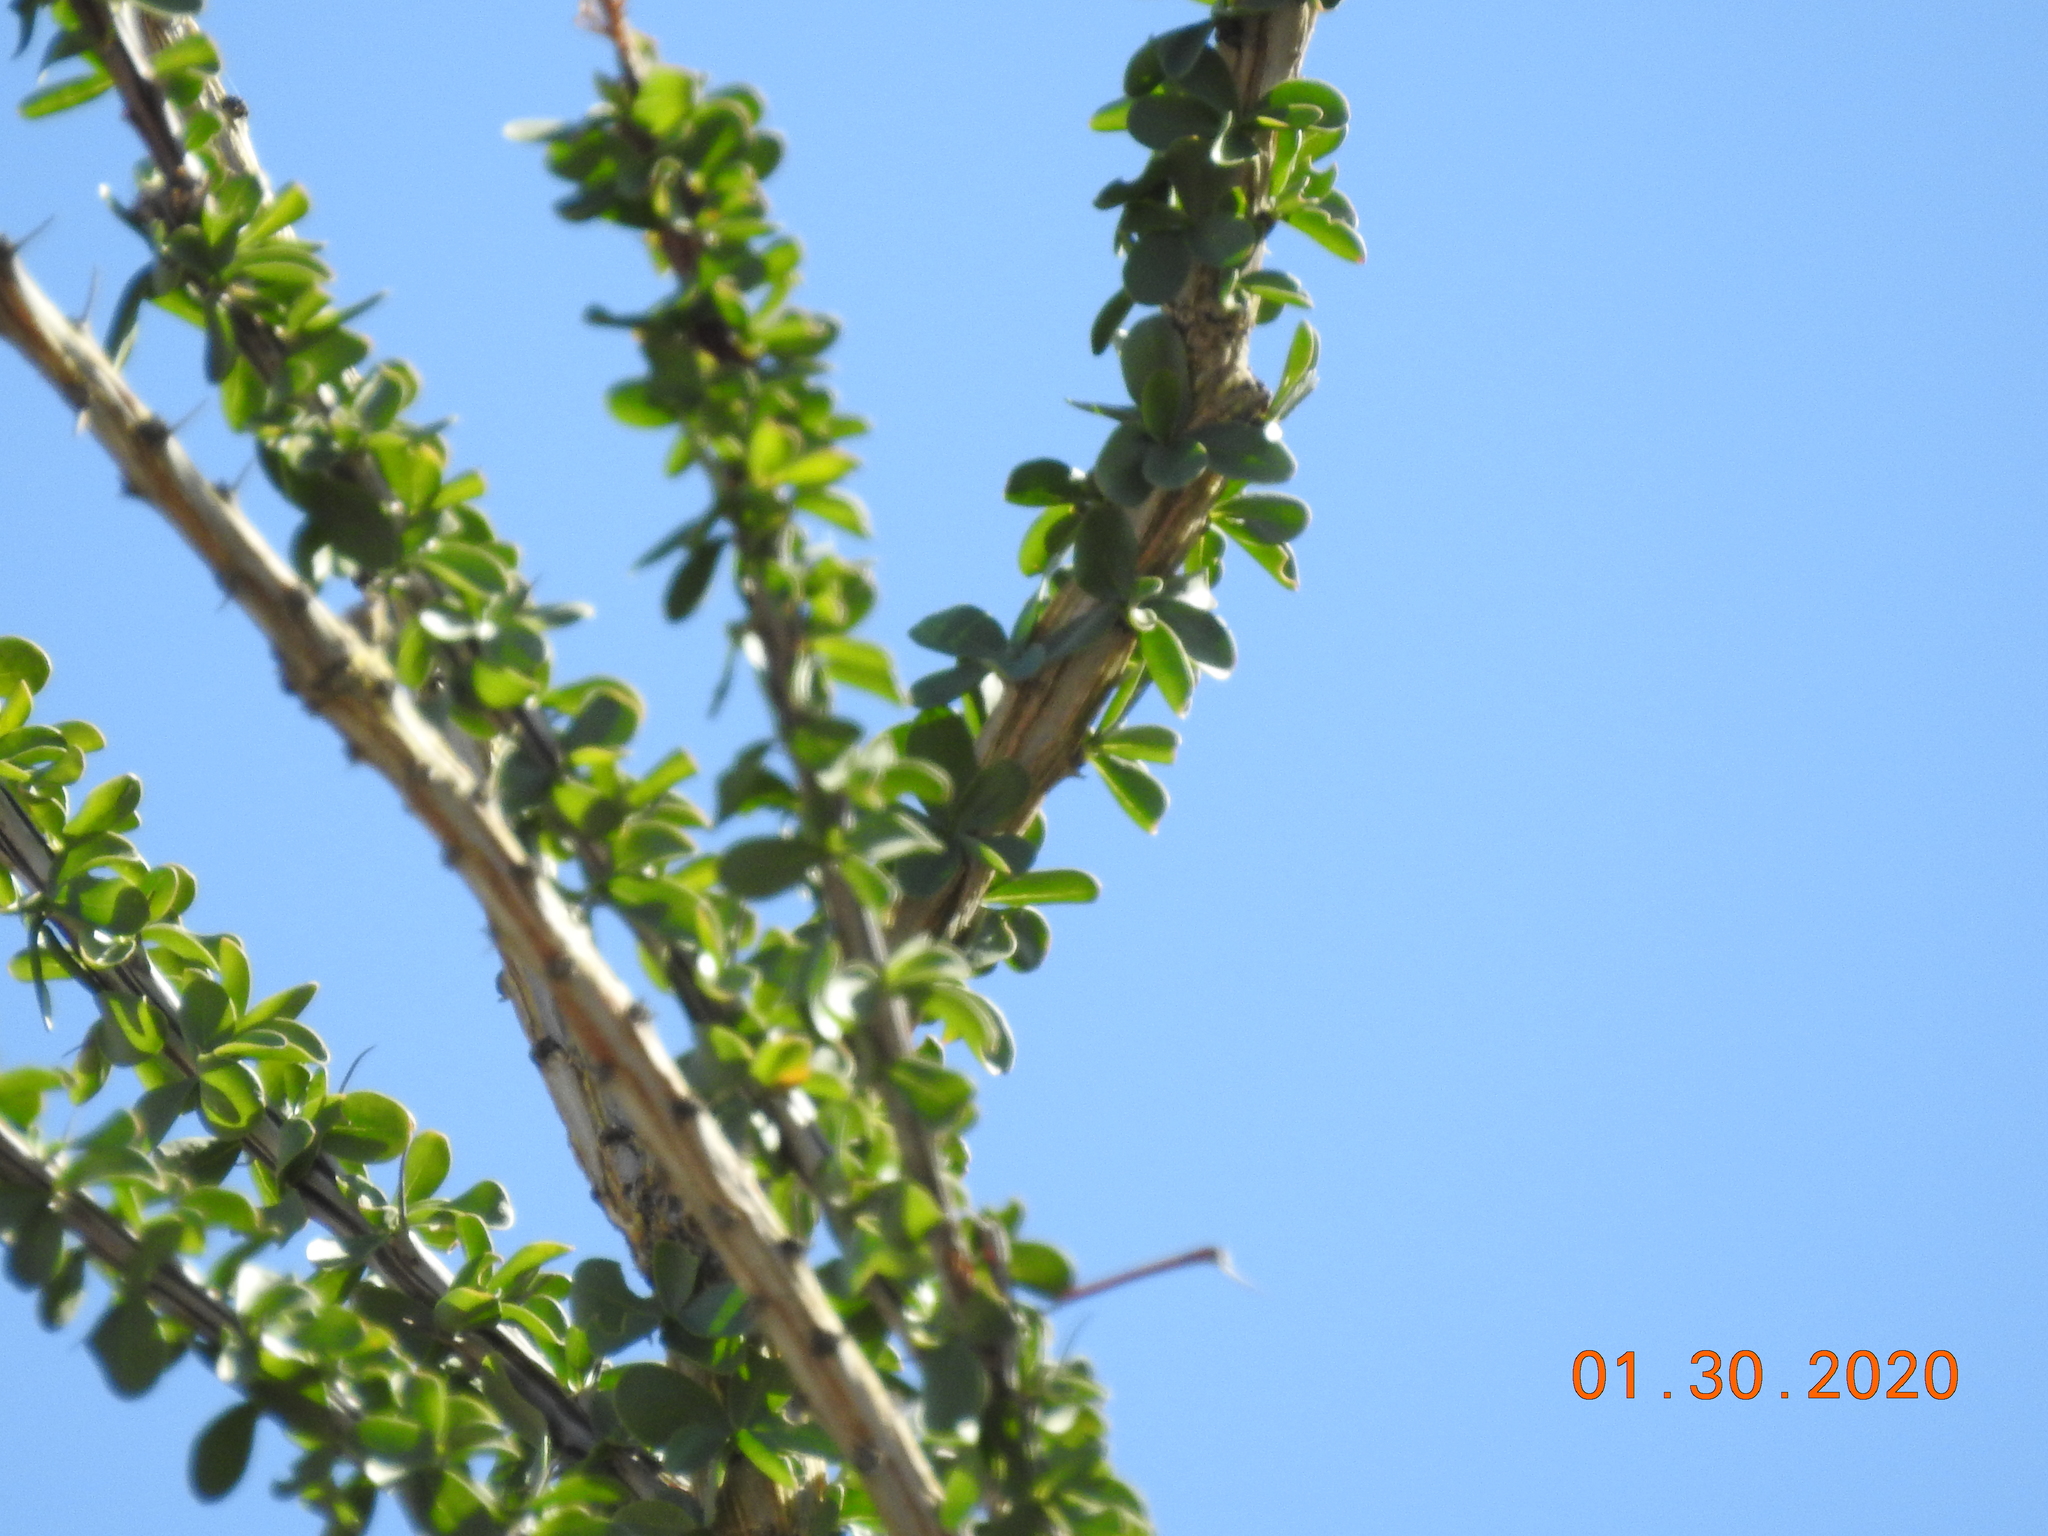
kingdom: Plantae
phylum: Tracheophyta
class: Magnoliopsida
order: Ericales
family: Fouquieriaceae
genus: Fouquieria
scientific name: Fouquieria splendens
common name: Vine-cactus
